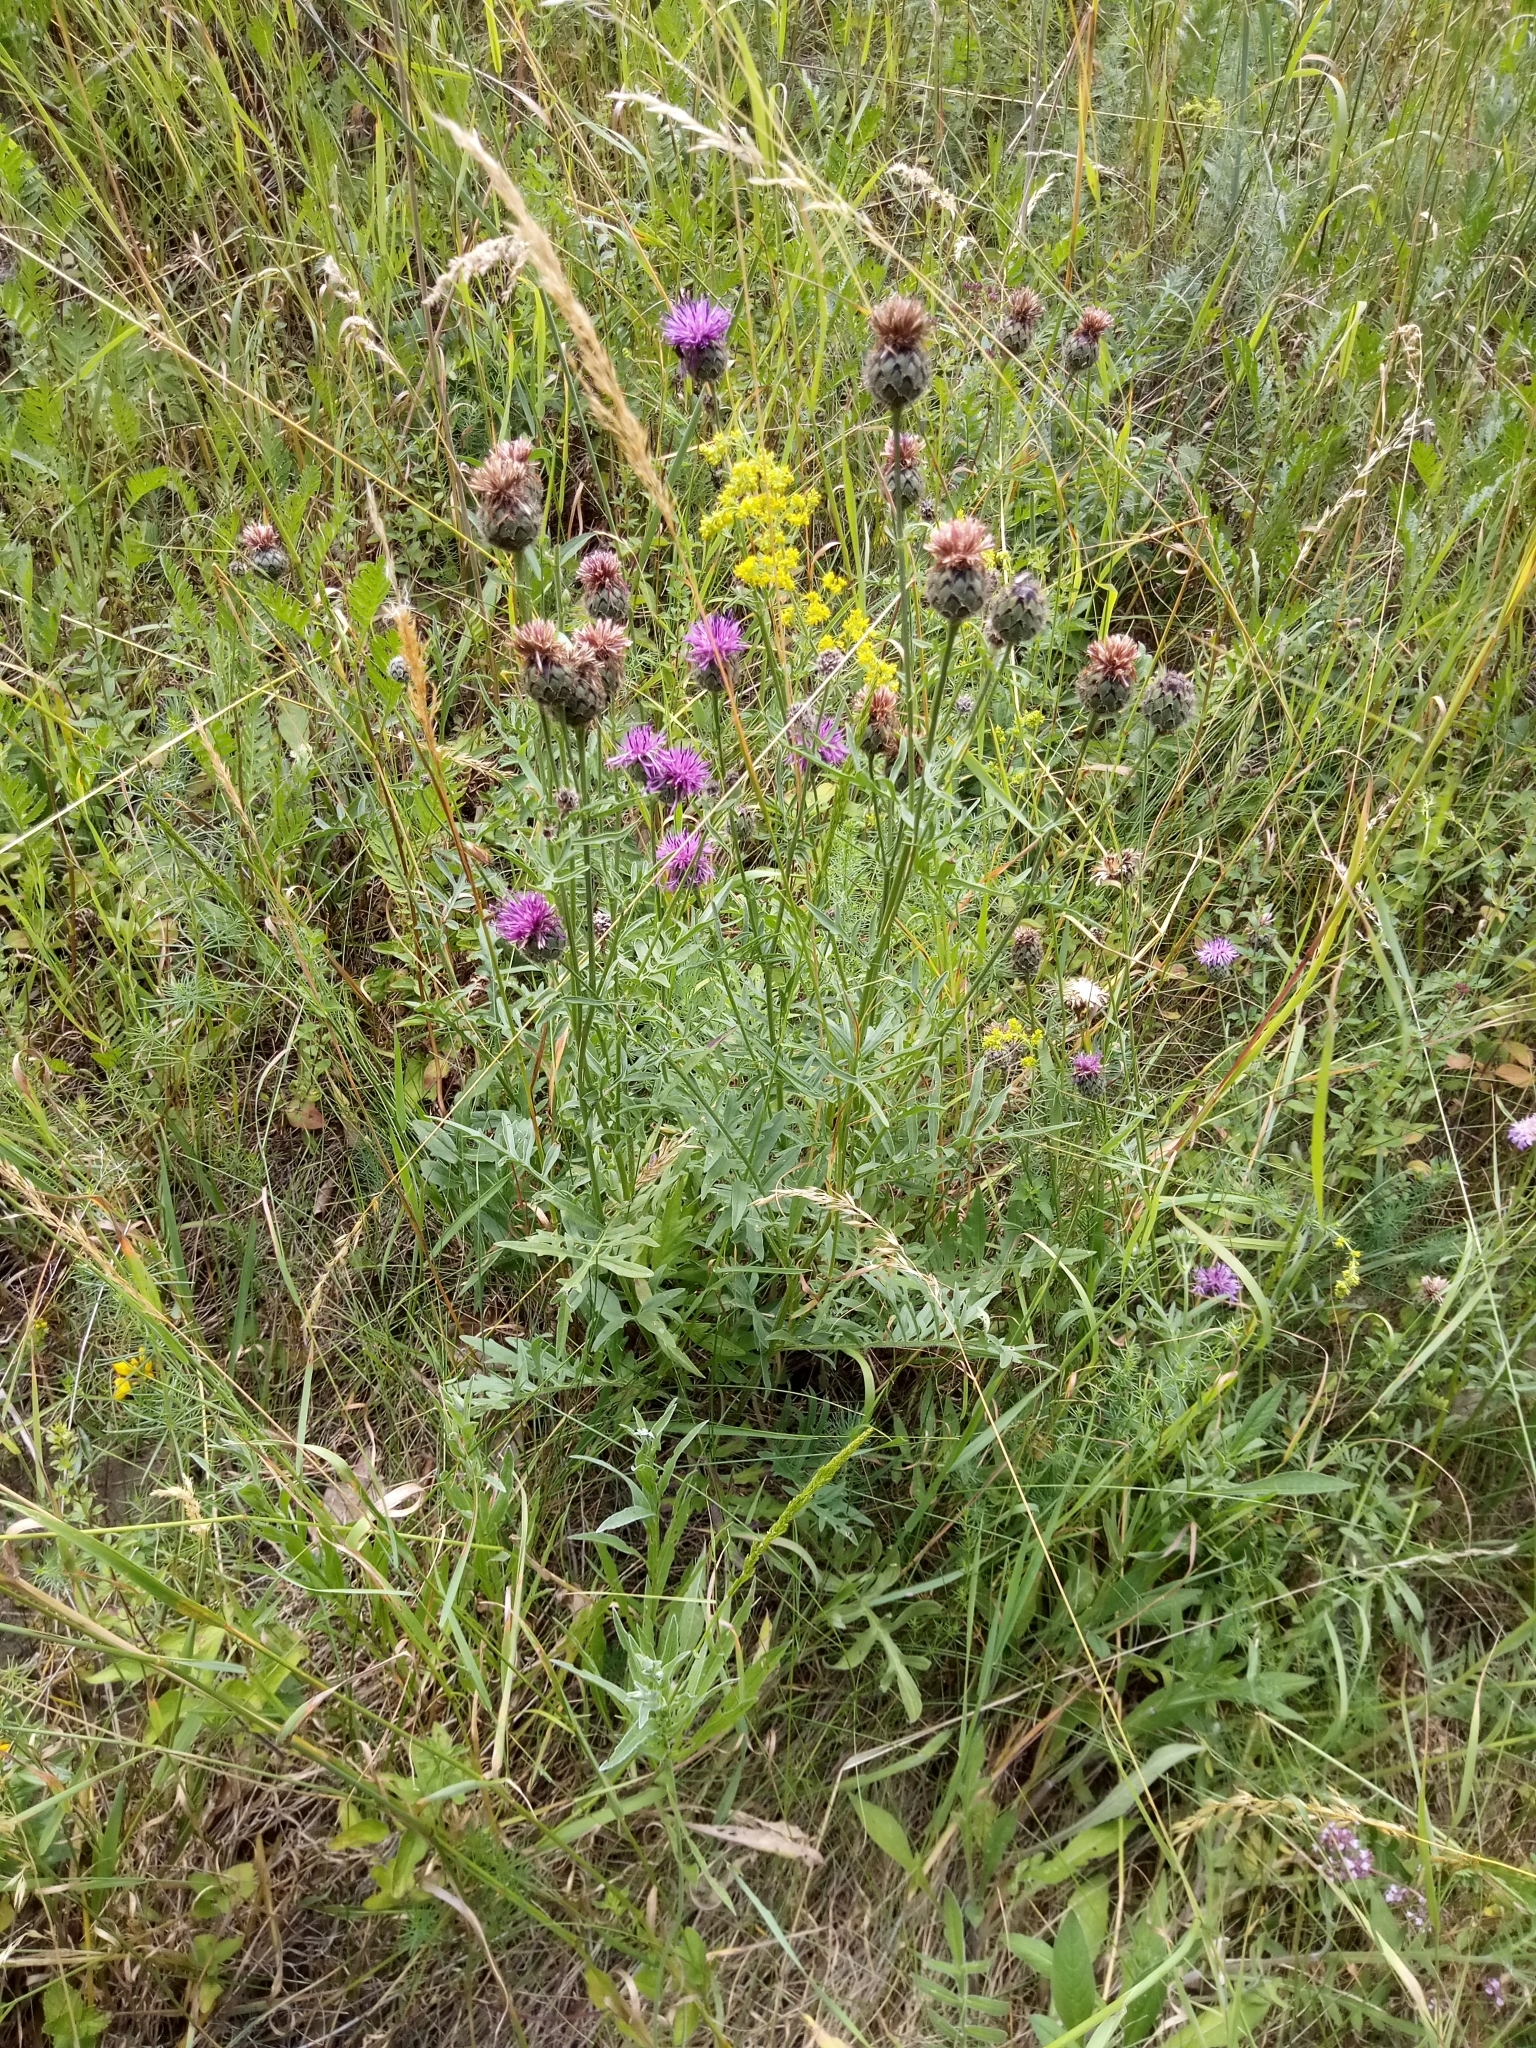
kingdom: Plantae
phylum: Tracheophyta
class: Magnoliopsida
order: Asterales
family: Asteraceae
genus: Centaurea
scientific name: Centaurea scabiosa
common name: Greater knapweed
